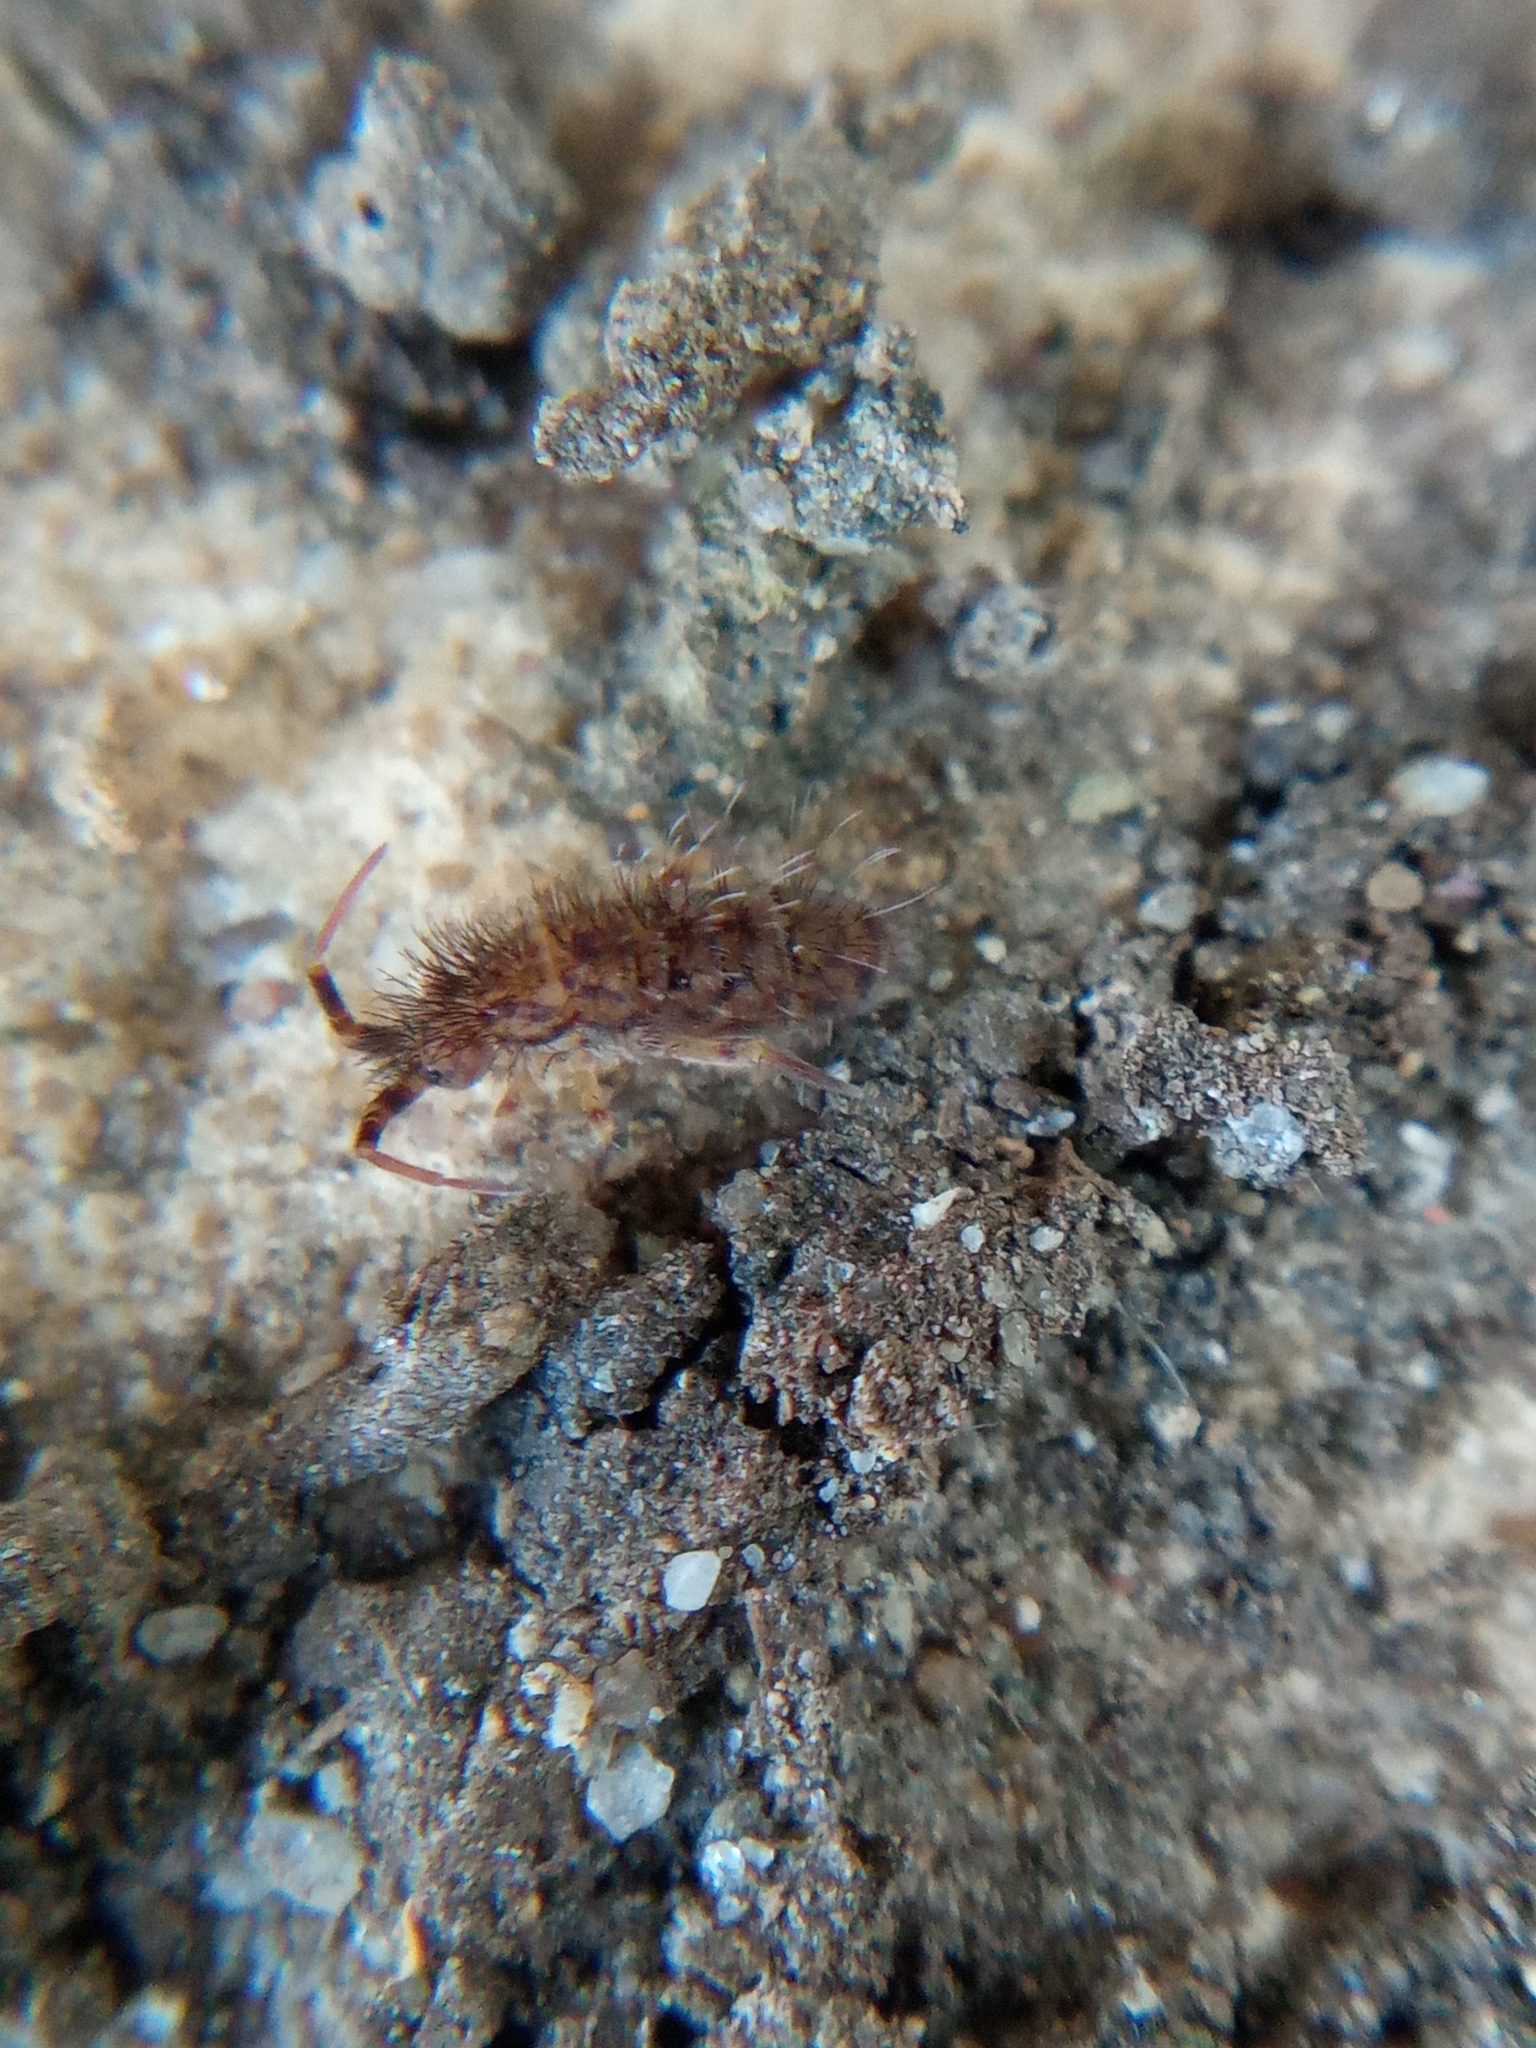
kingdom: Animalia
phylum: Arthropoda
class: Collembola
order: Entomobryomorpha
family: Orchesellidae
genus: Orchesella
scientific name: Orchesella villosa
